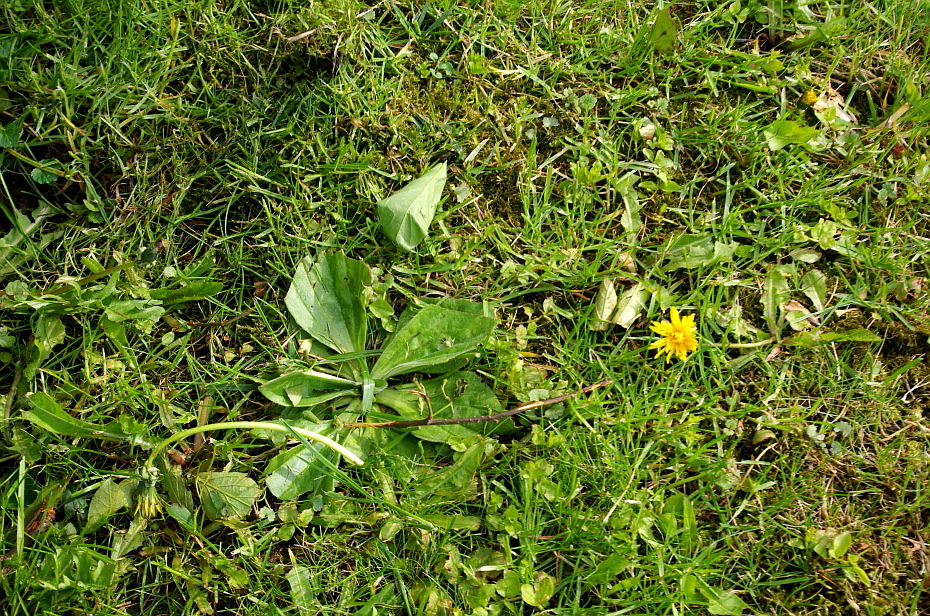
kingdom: Plantae
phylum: Tracheophyta
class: Magnoliopsida
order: Lamiales
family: Plantaginaceae
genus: Plantago
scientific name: Plantago media
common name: Hoary plantain
